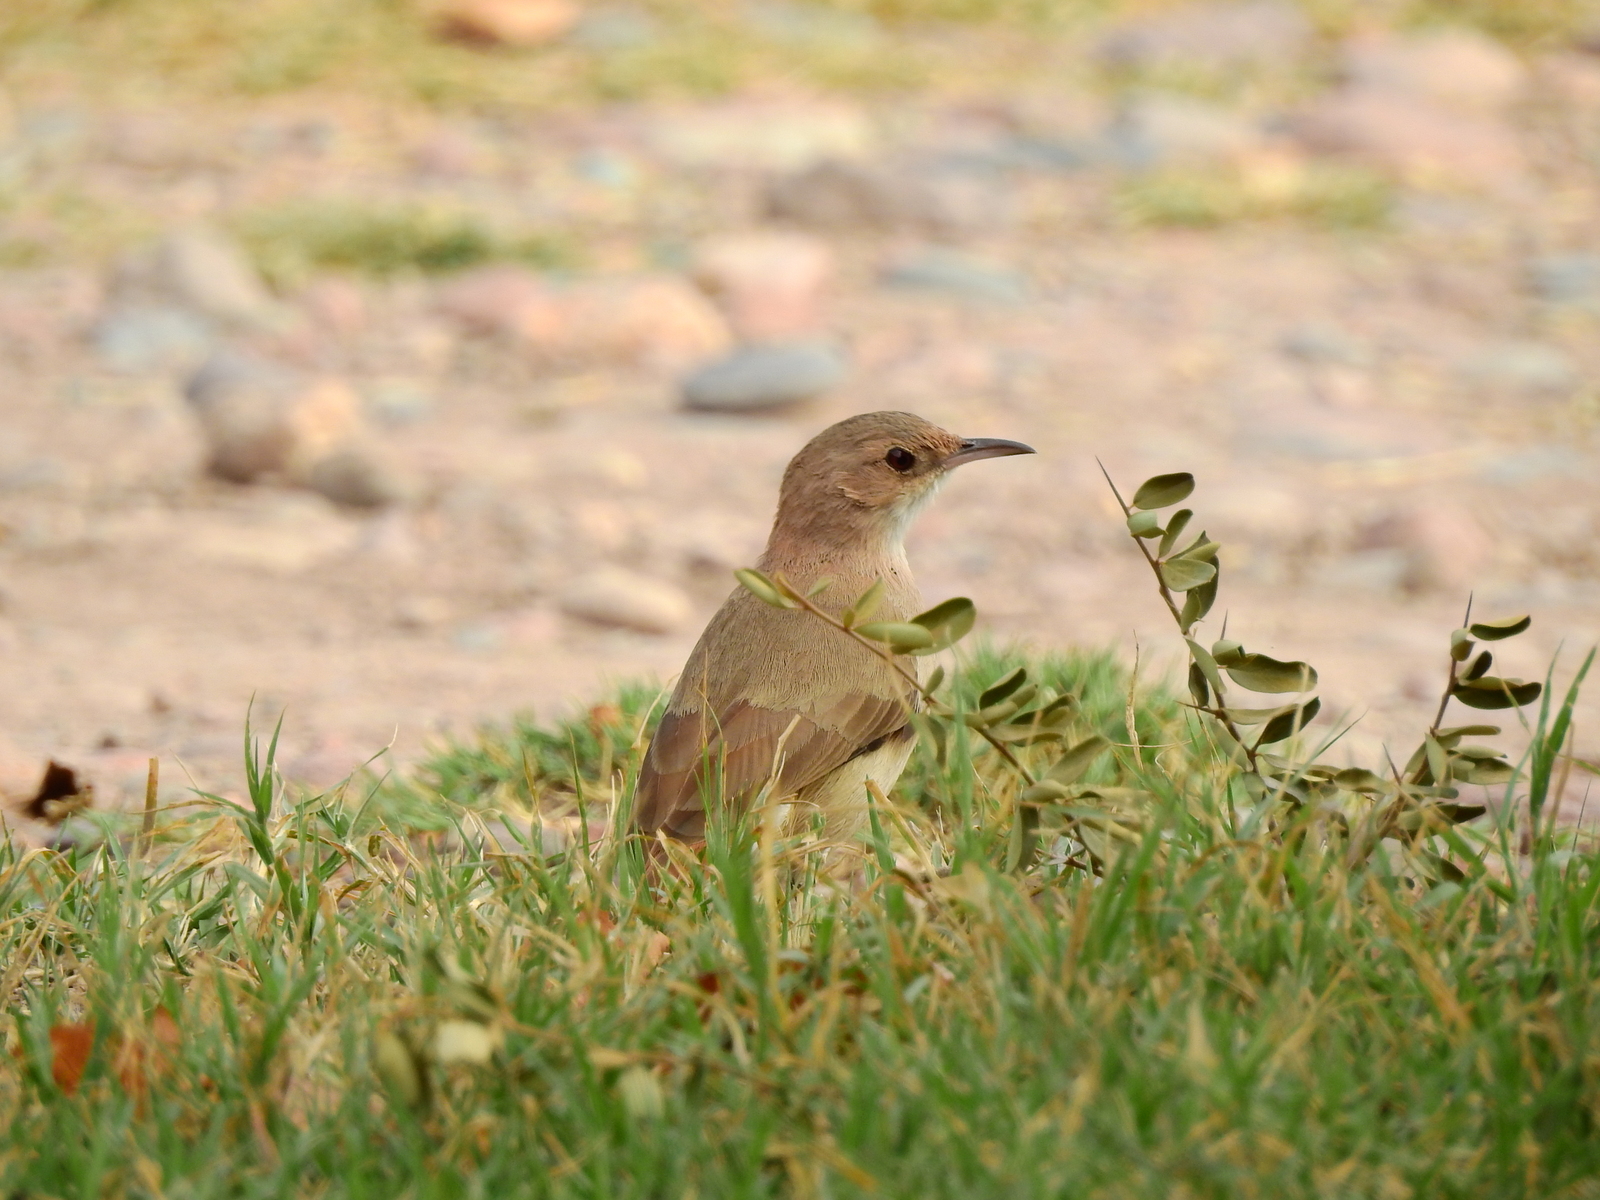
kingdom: Animalia
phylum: Chordata
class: Aves
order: Passeriformes
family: Furnariidae
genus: Furnarius
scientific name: Furnarius rufus
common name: Rufous hornero
